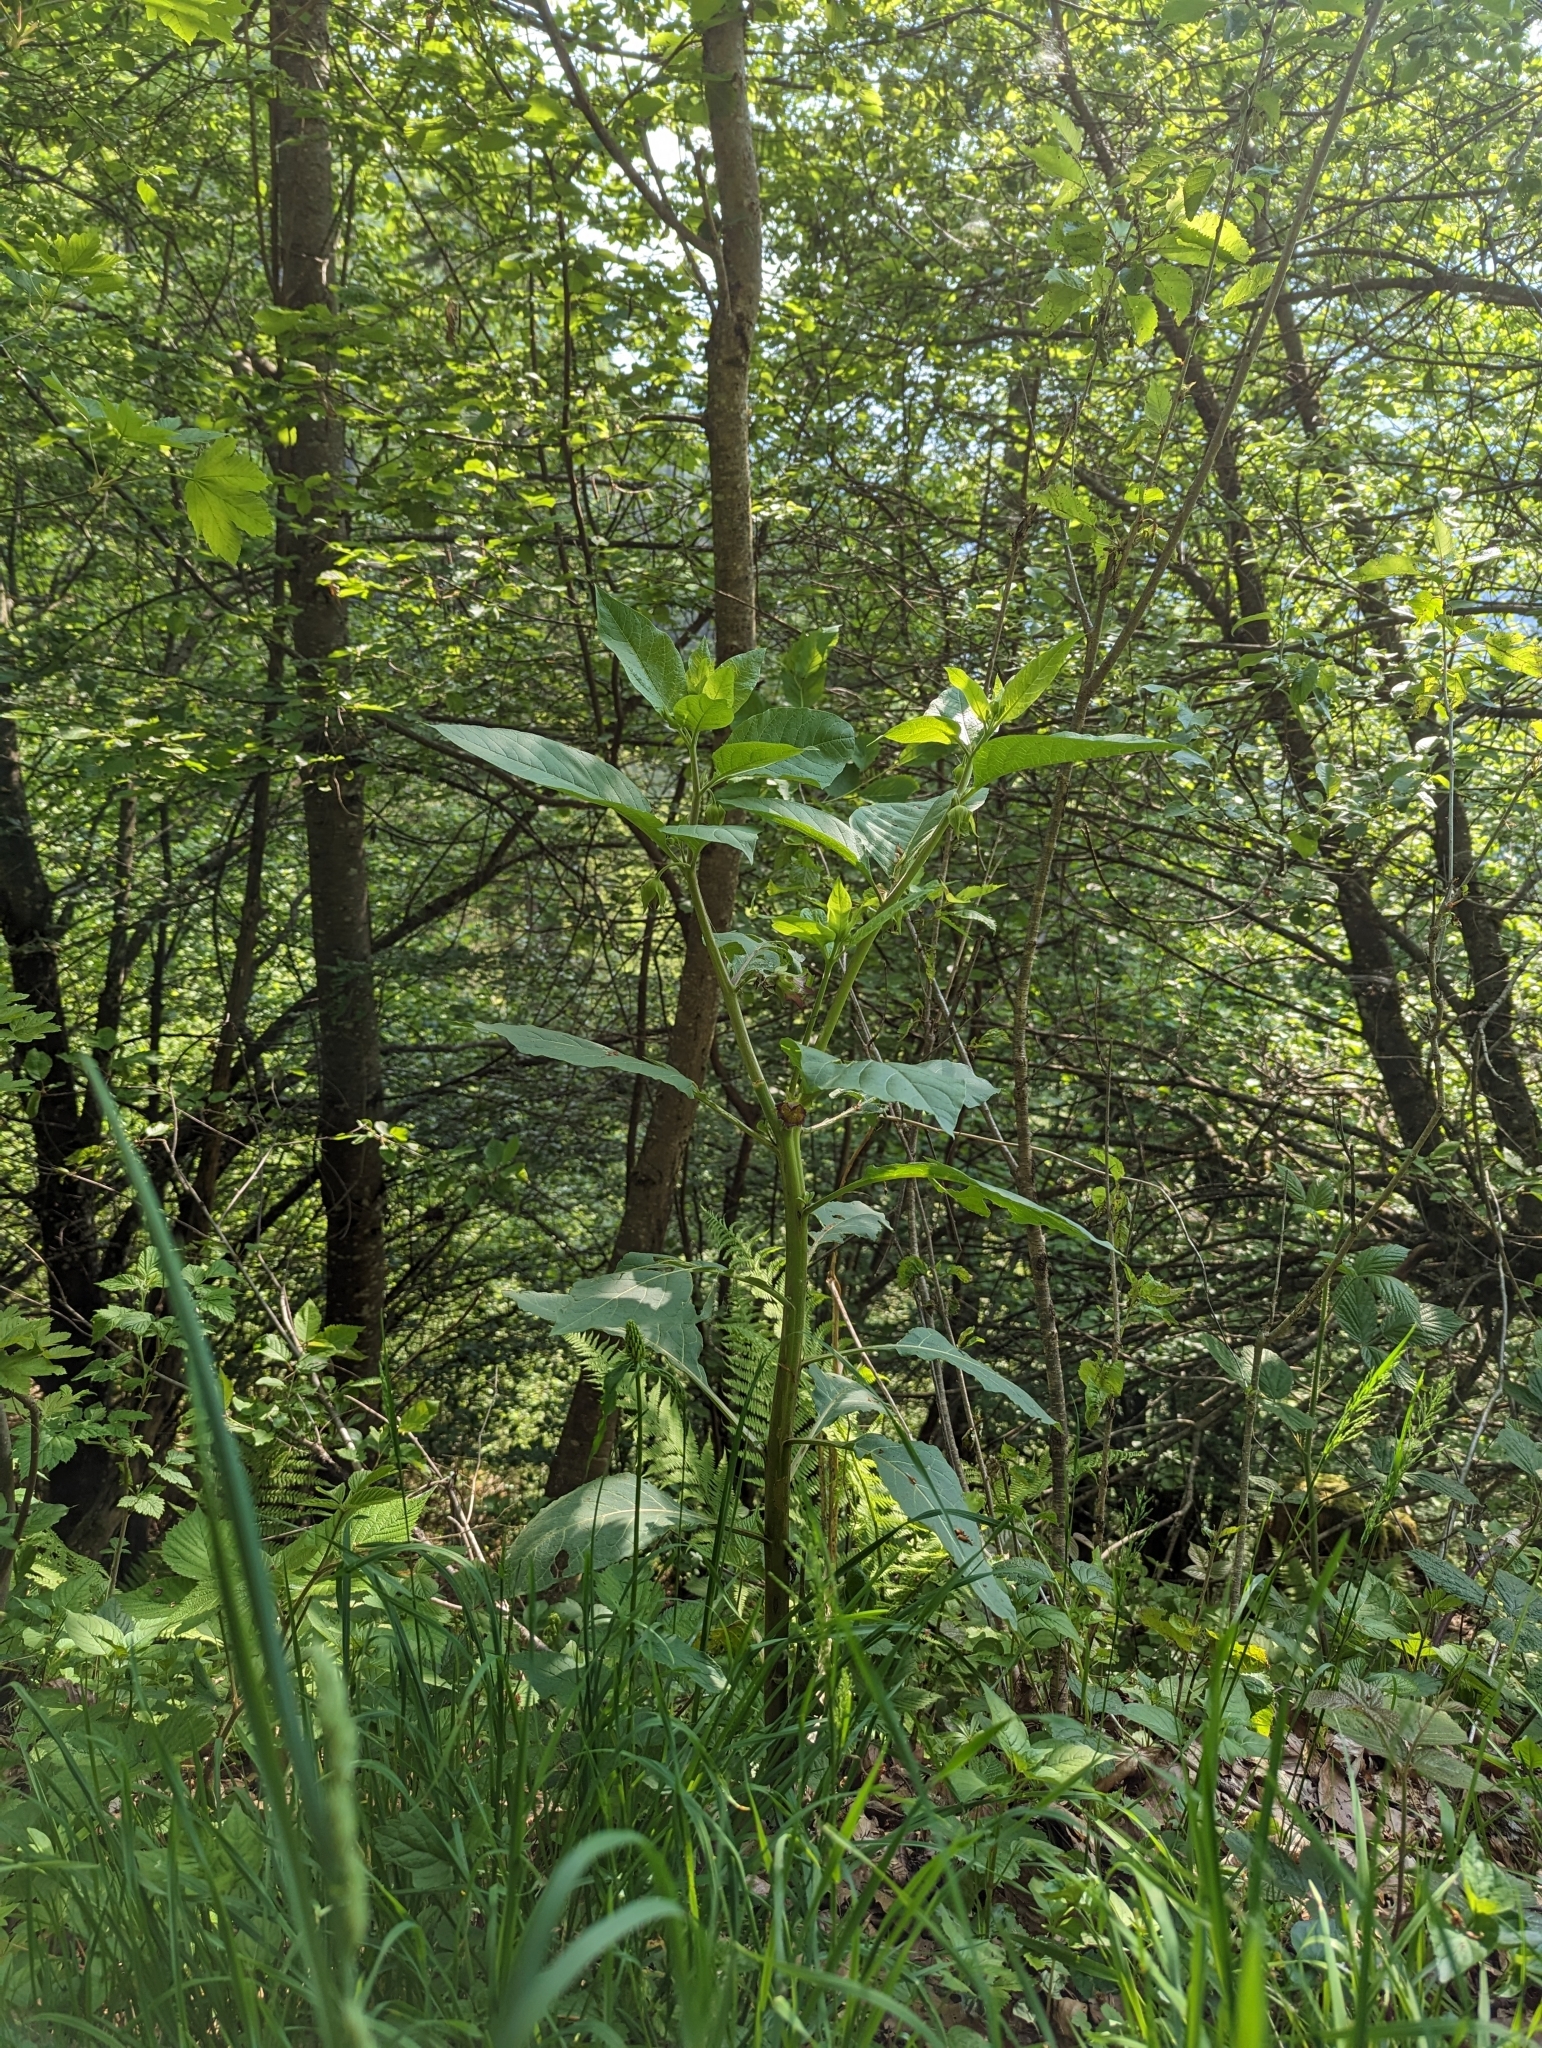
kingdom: Plantae
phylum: Tracheophyta
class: Magnoliopsida
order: Solanales
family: Solanaceae
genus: Atropa
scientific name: Atropa belladonna
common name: Deadly nightshade
